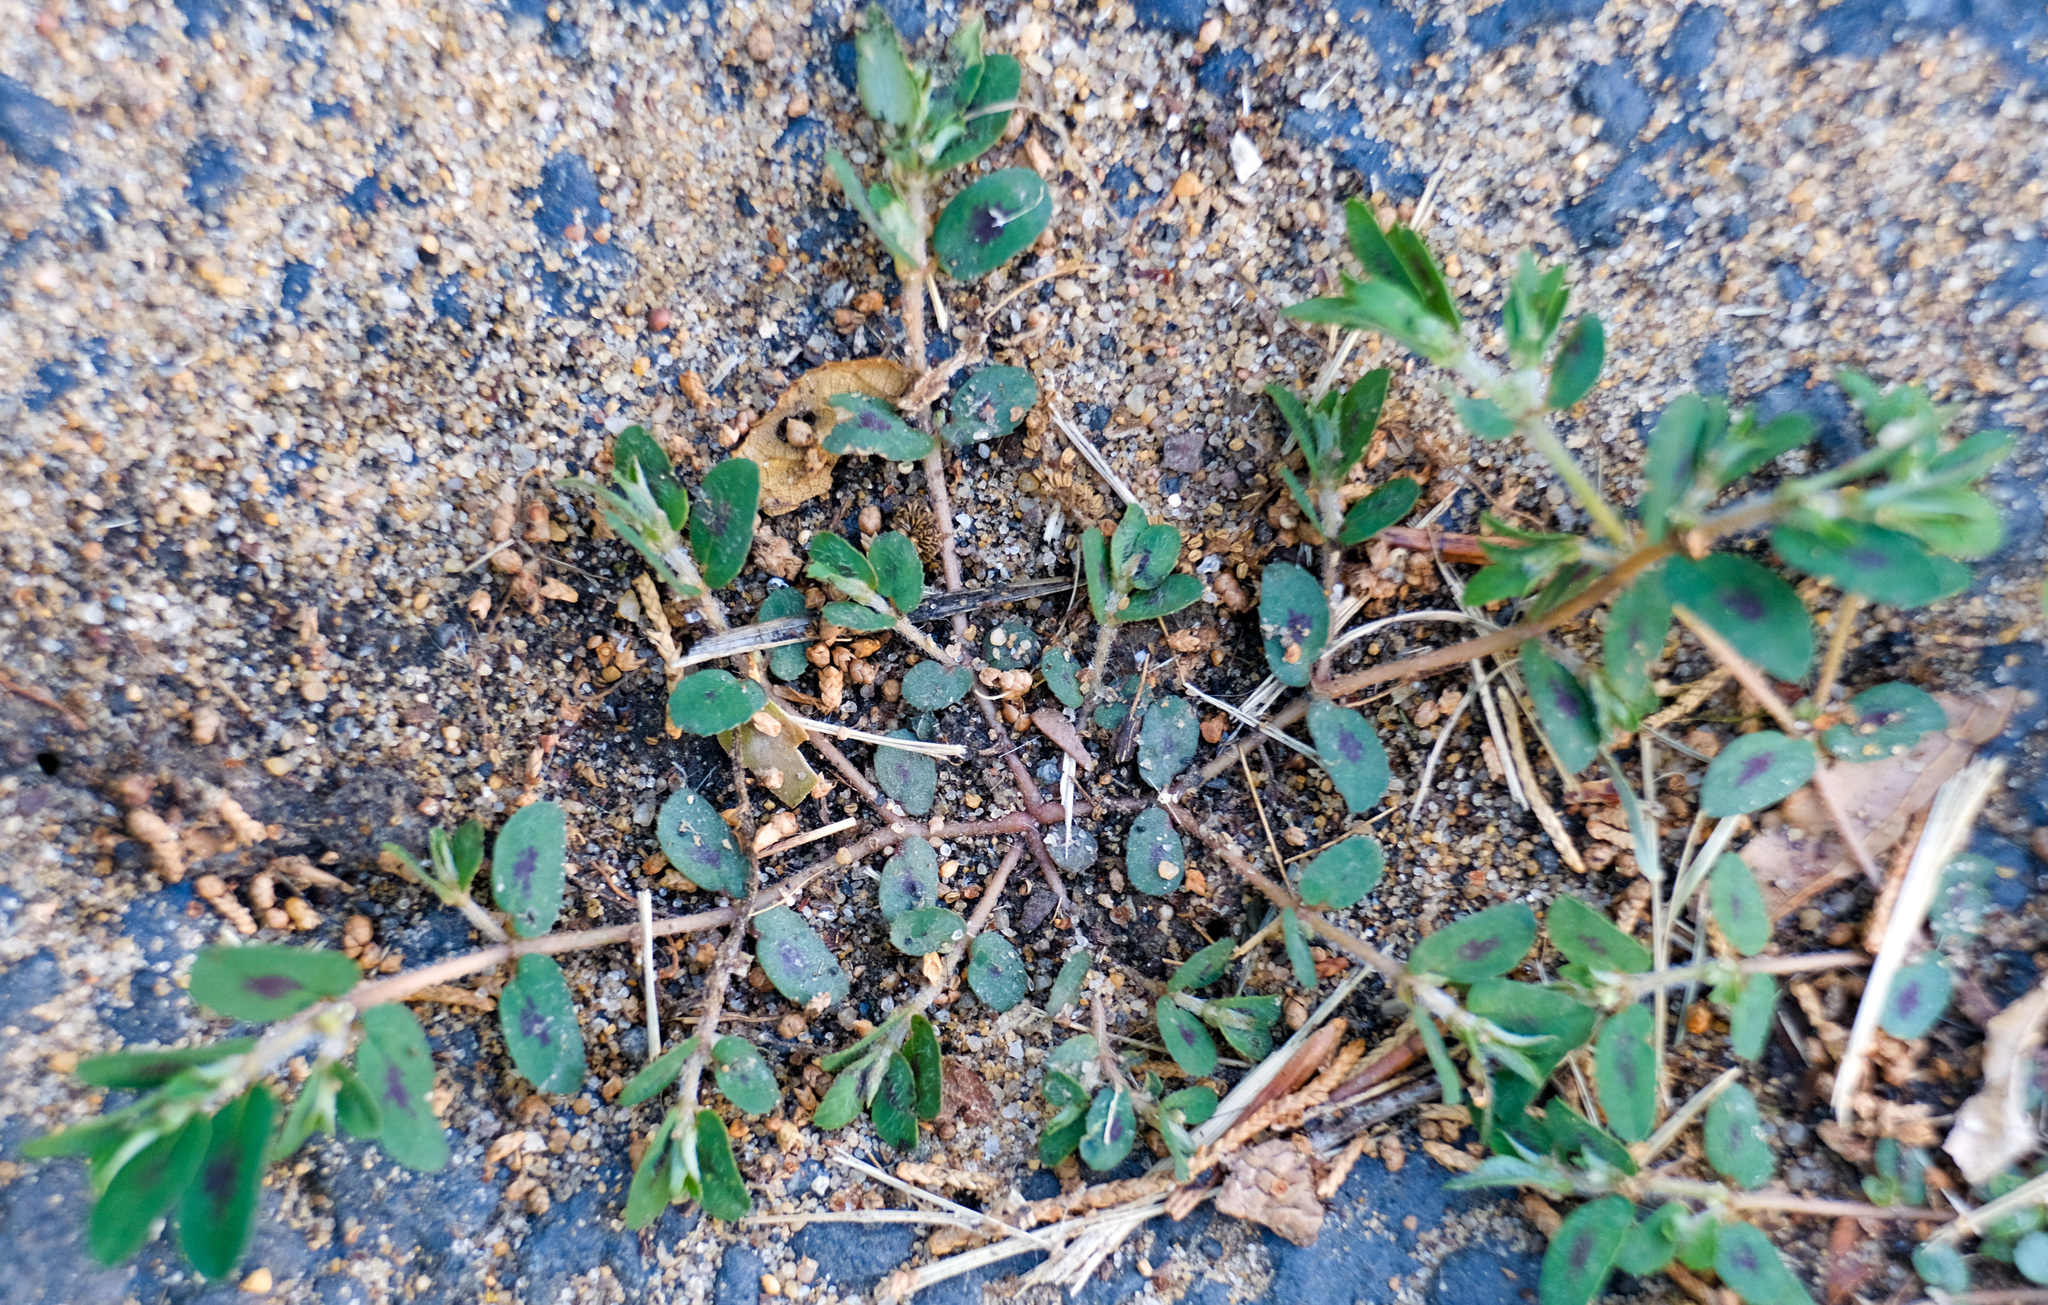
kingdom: Plantae
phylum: Tracheophyta
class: Magnoliopsida
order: Malpighiales
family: Euphorbiaceae
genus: Euphorbia
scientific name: Euphorbia maculata
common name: Spotted spurge
